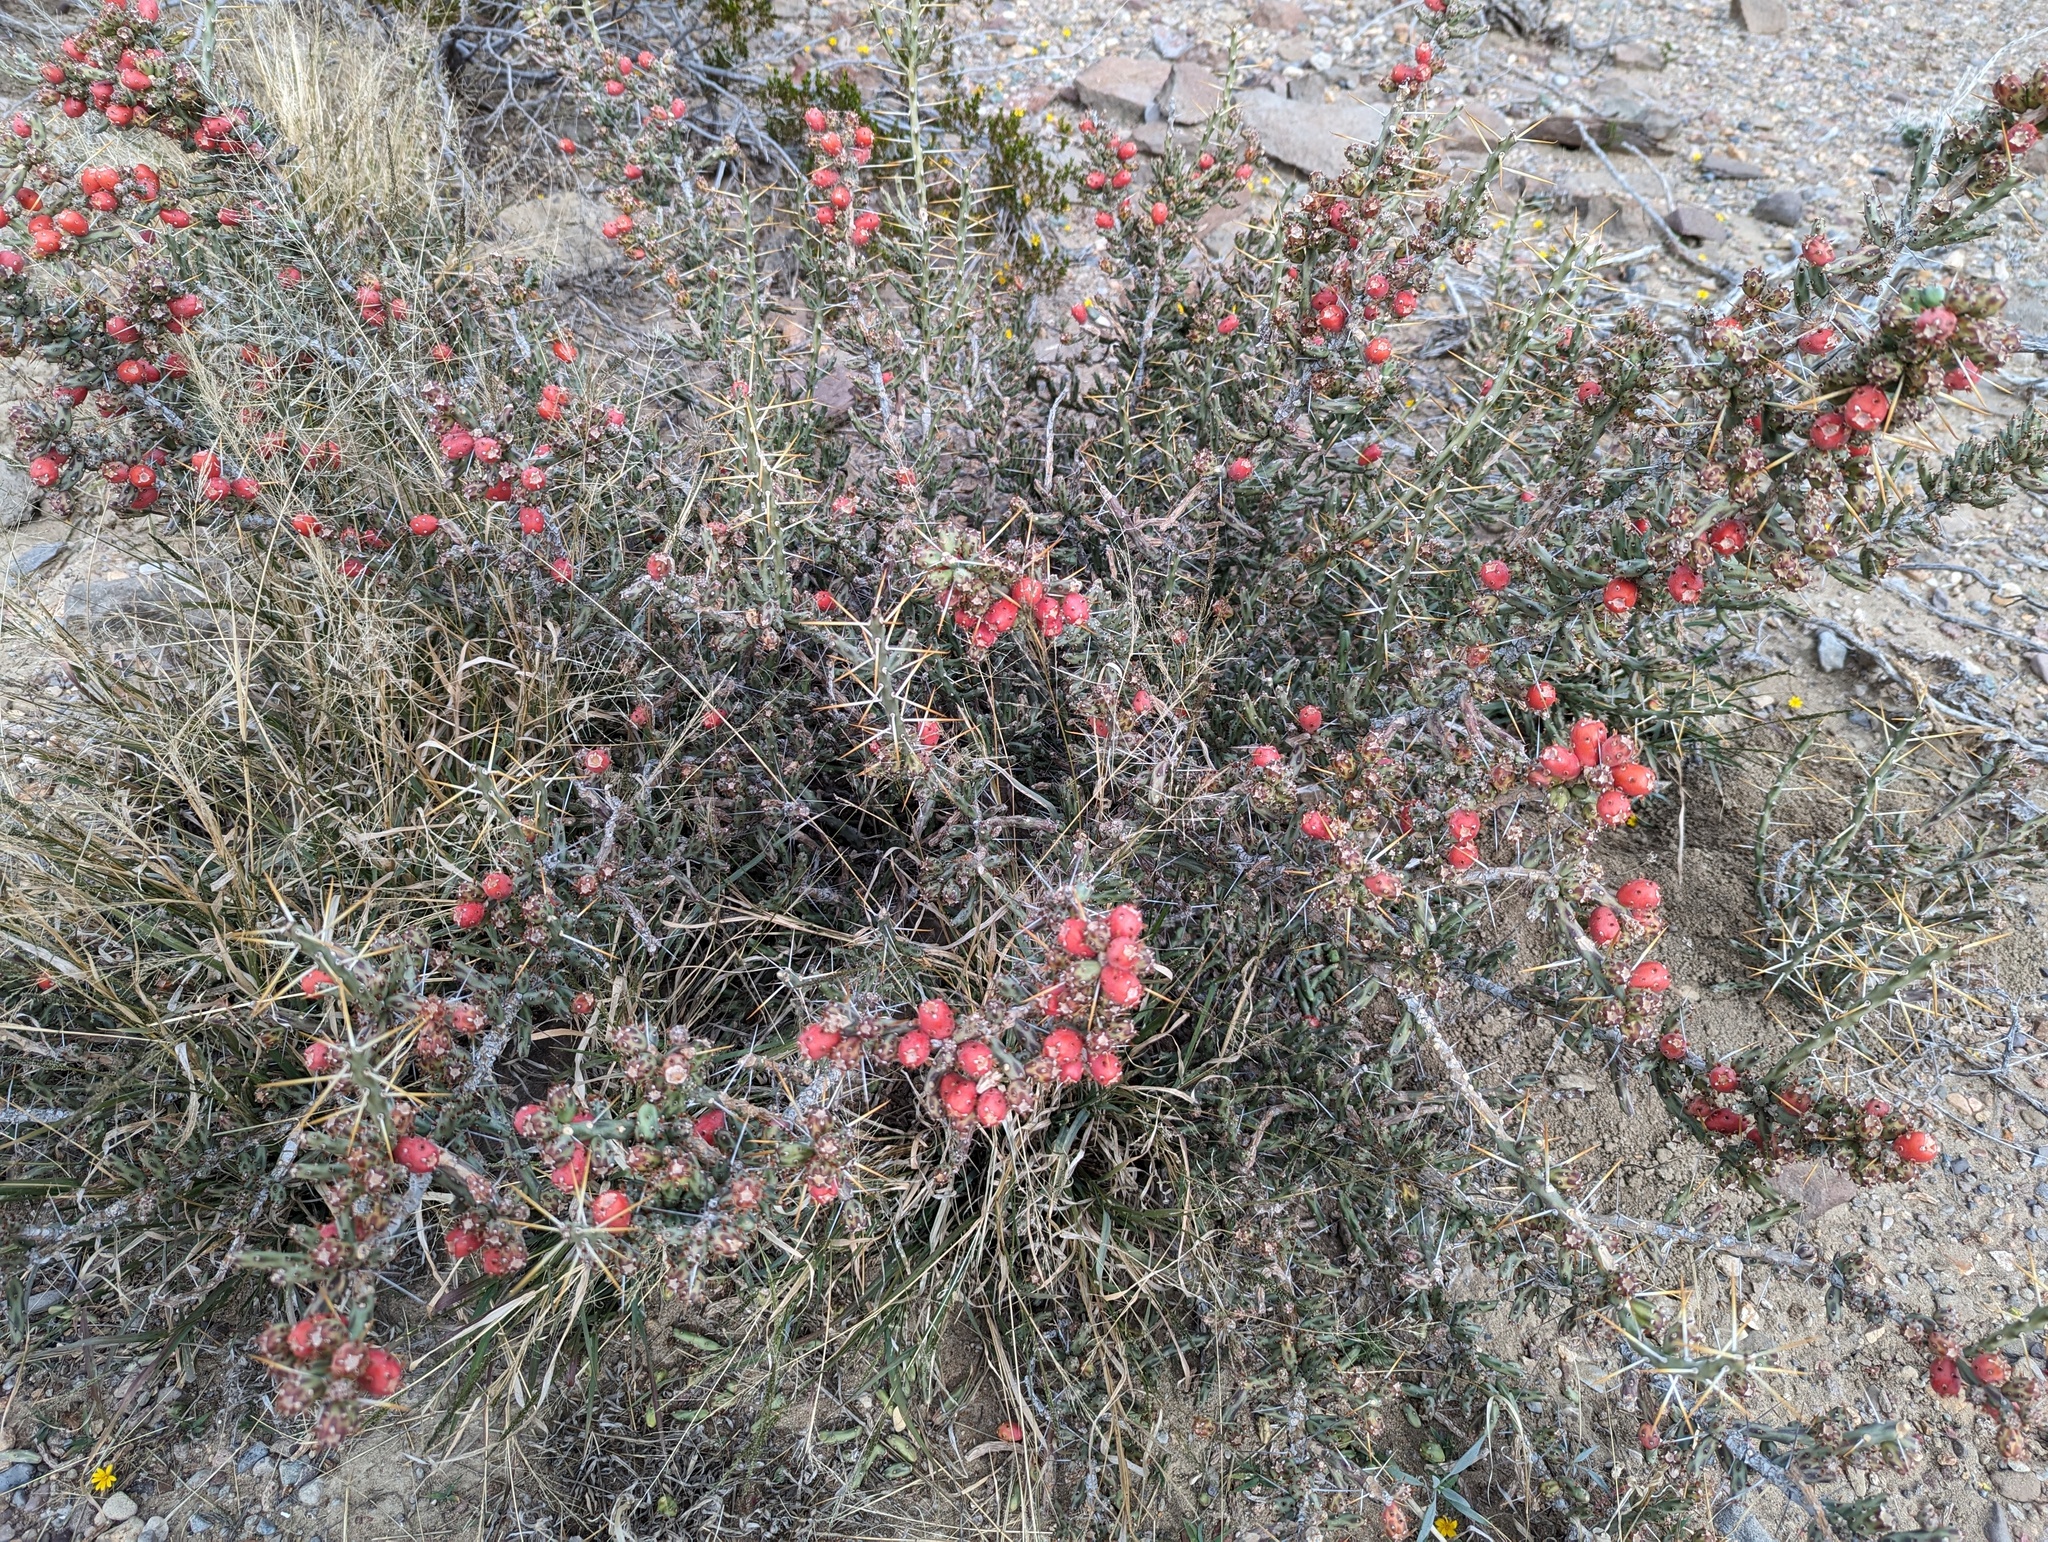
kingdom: Plantae
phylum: Tracheophyta
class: Magnoliopsida
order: Caryophyllales
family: Cactaceae
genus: Cylindropuntia
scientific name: Cylindropuntia leptocaulis
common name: Christmas cactus
